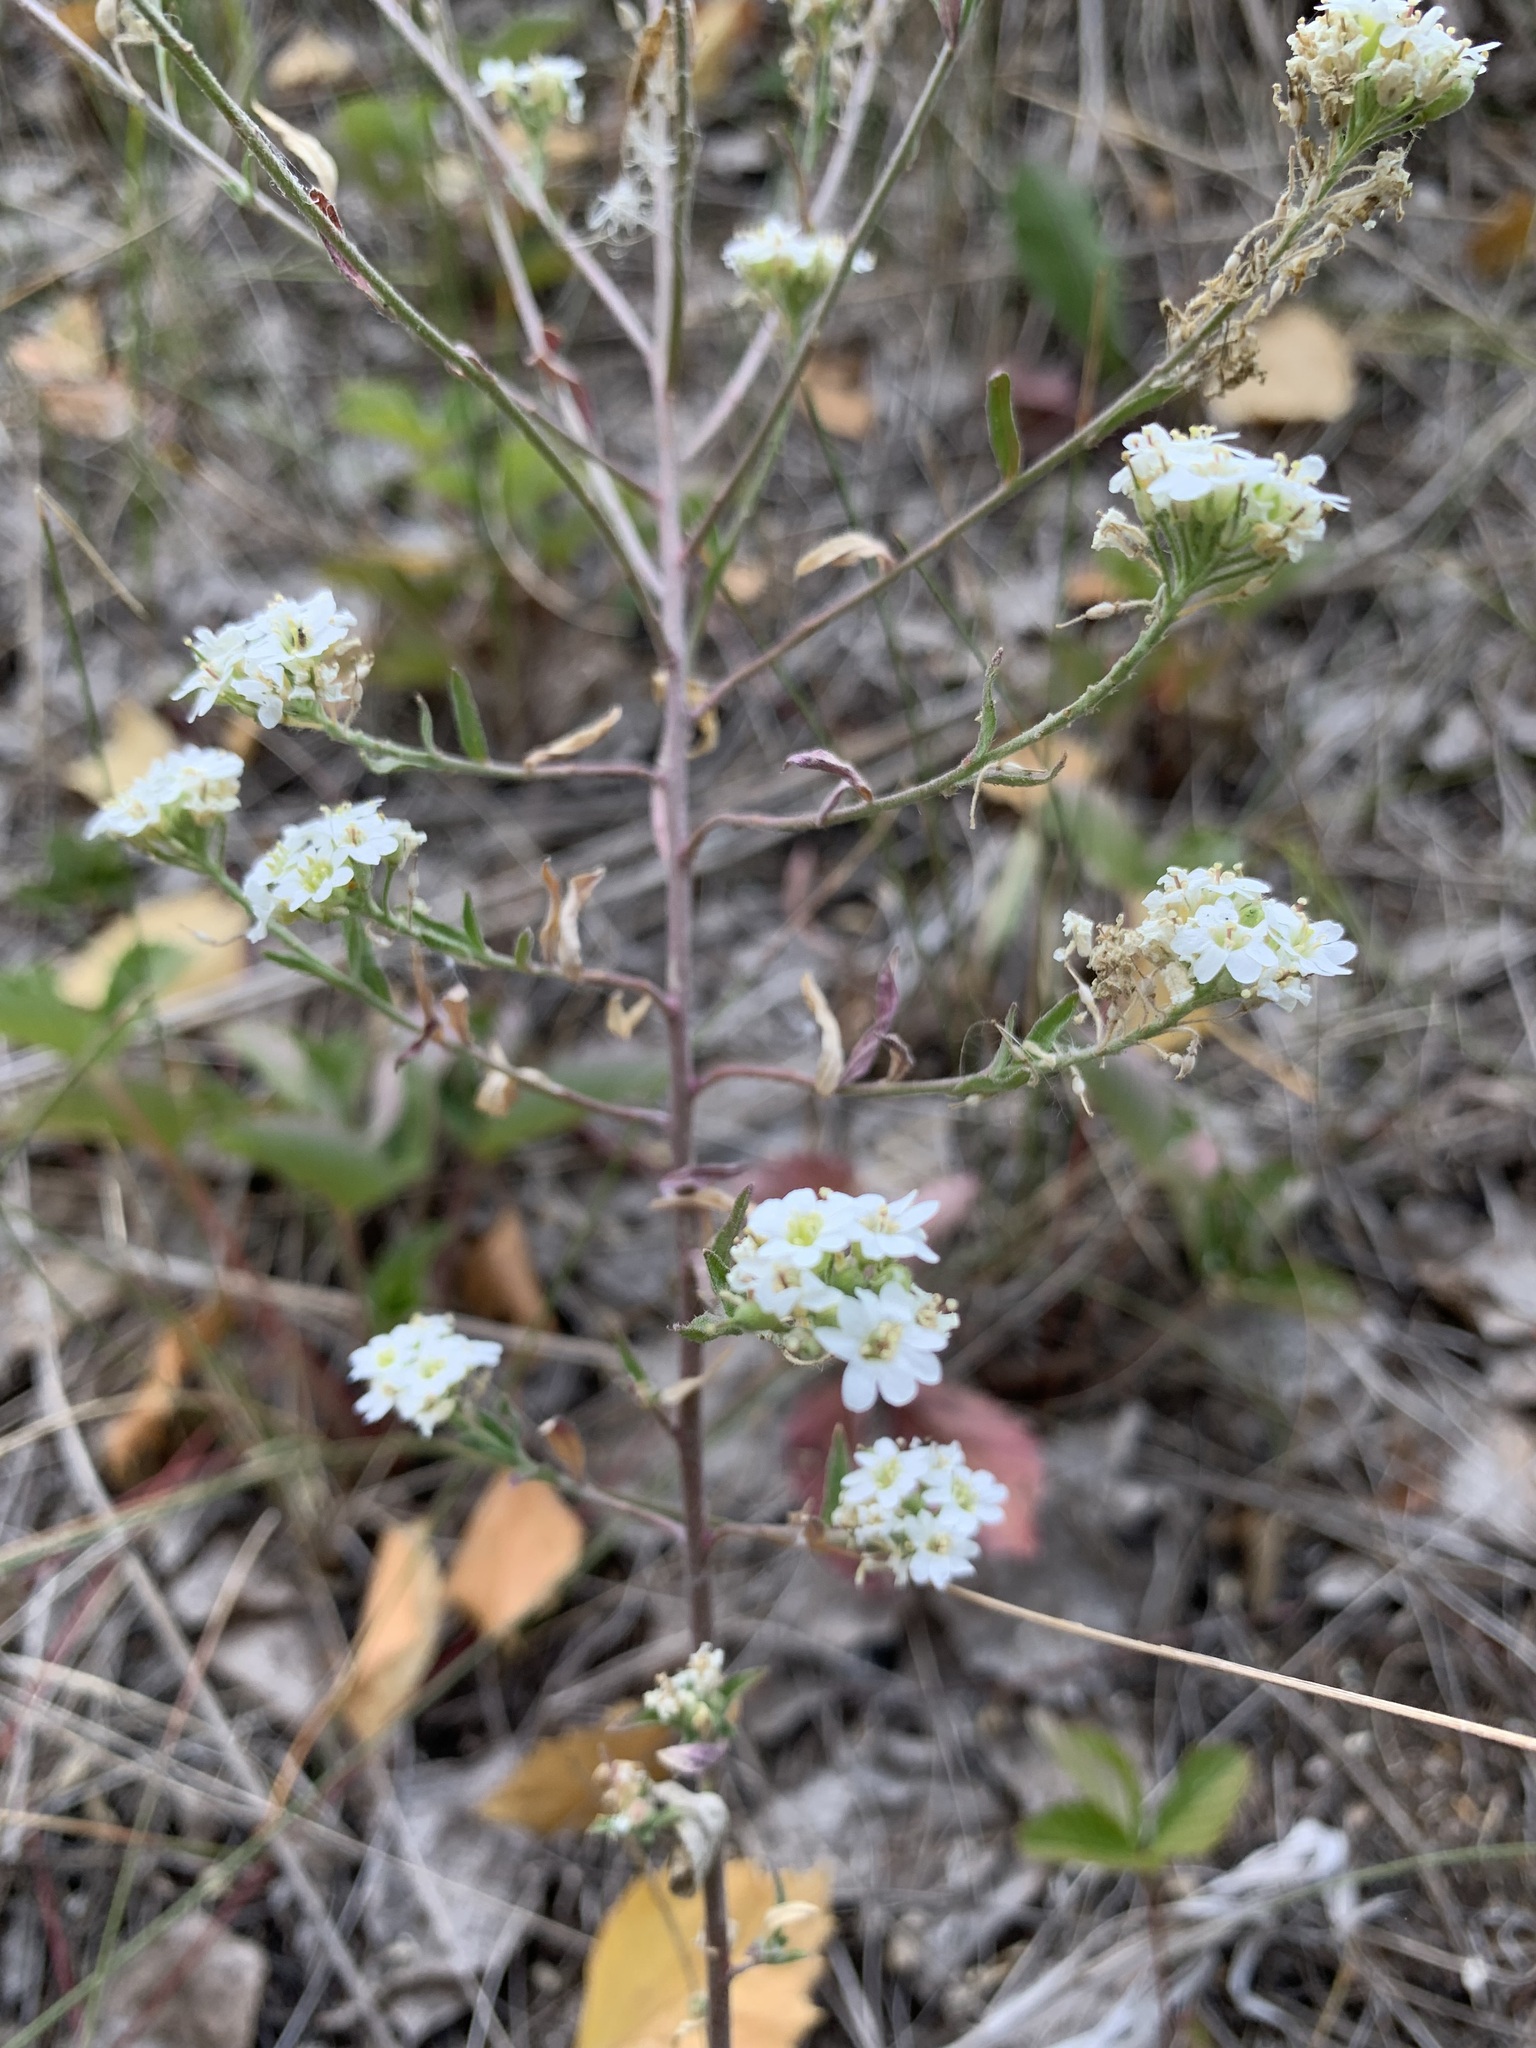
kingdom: Plantae
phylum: Tracheophyta
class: Magnoliopsida
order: Brassicales
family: Brassicaceae
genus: Berteroa
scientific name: Berteroa incana
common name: Hoary alison
